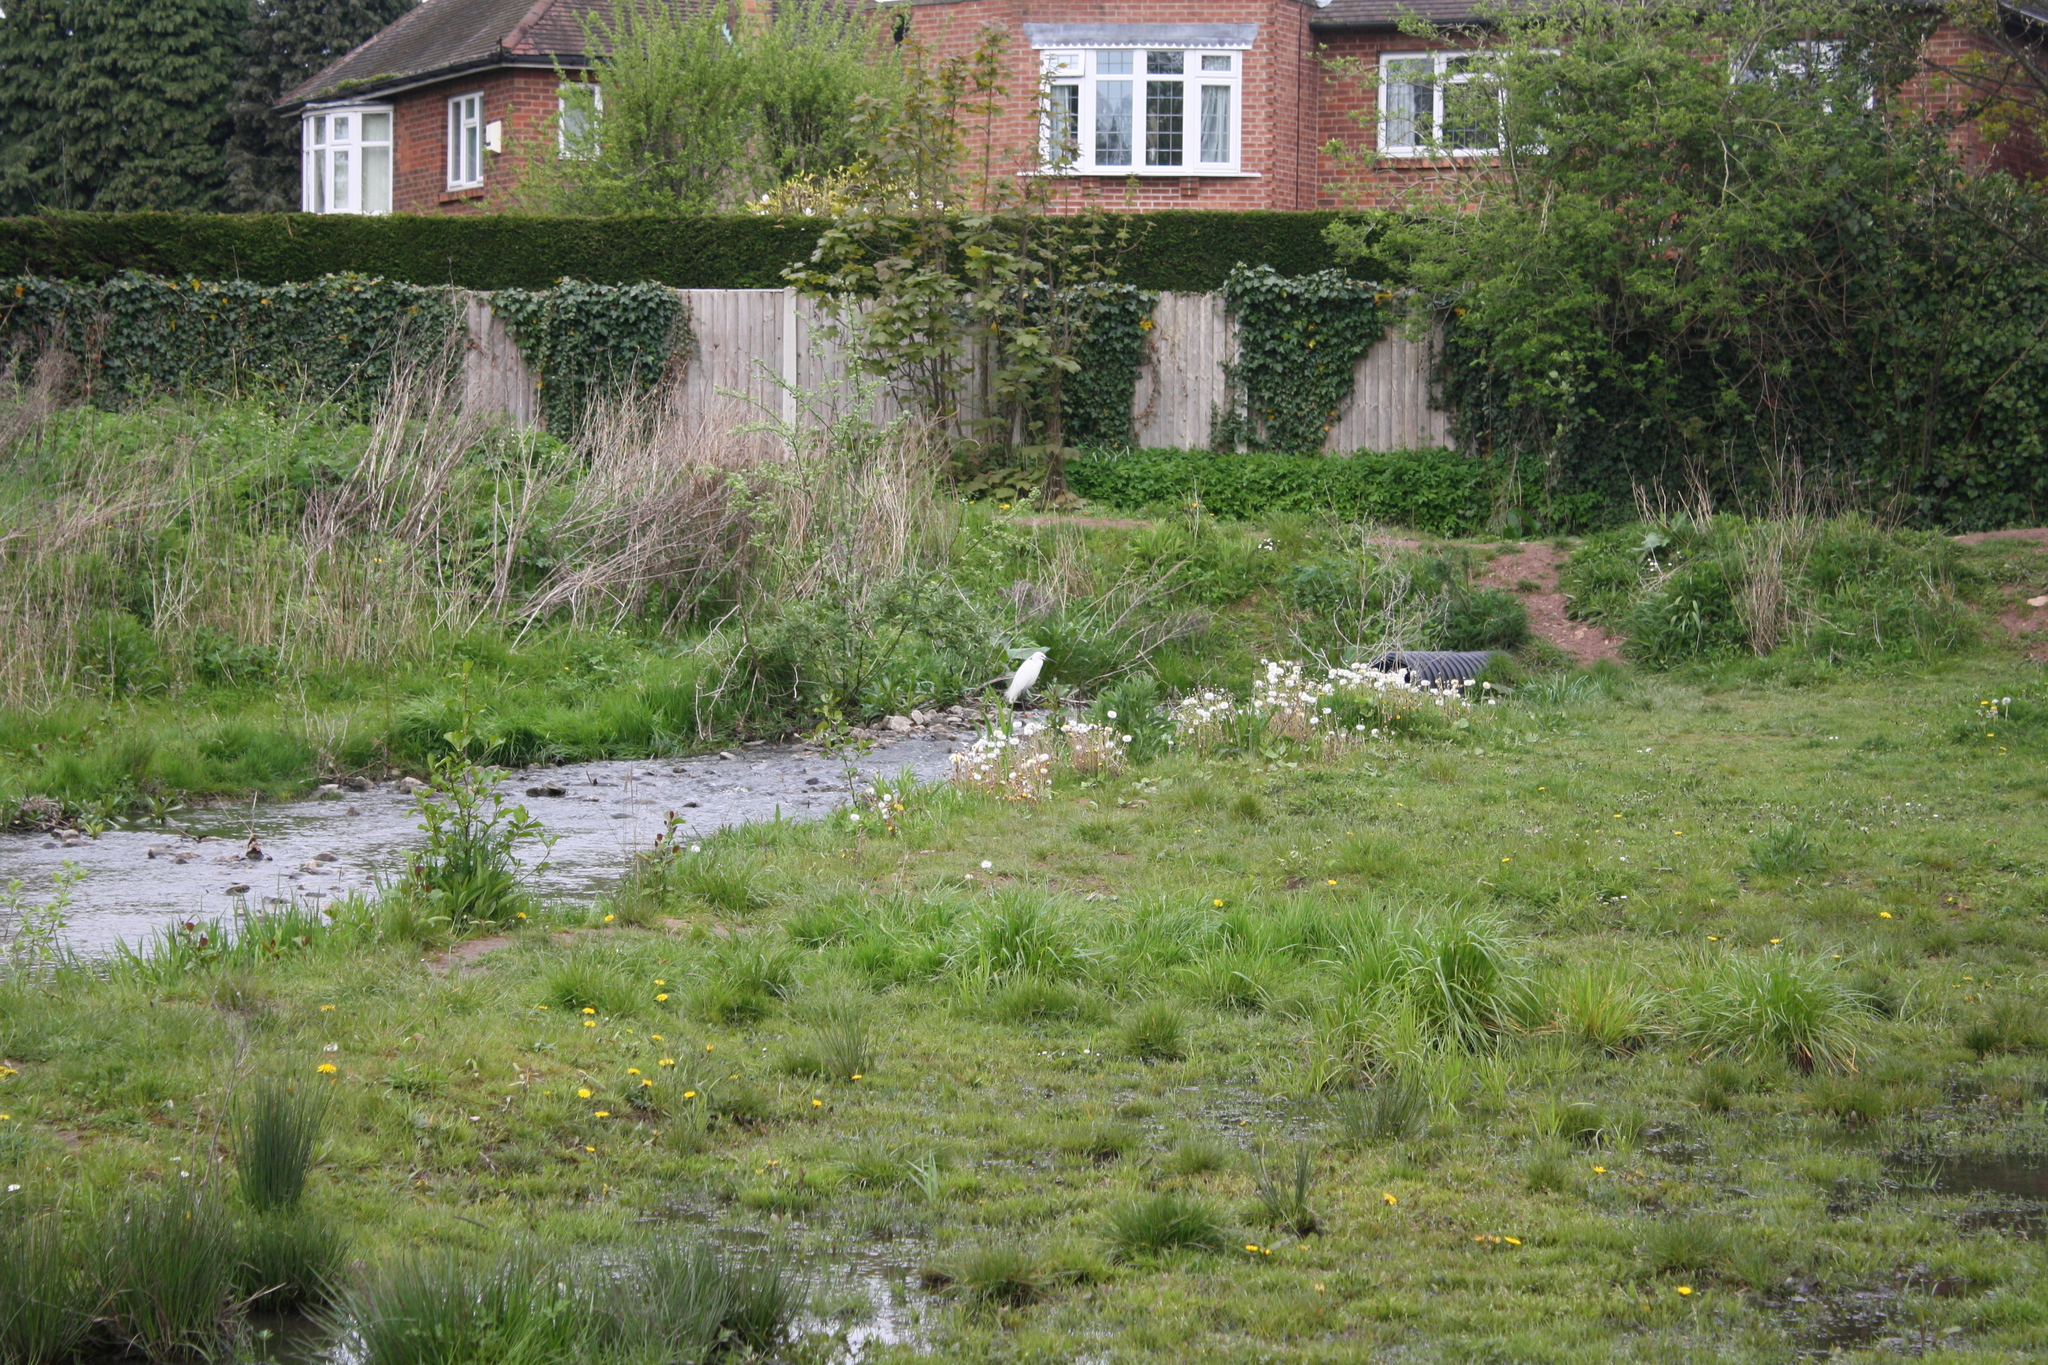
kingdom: Animalia
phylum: Chordata
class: Aves
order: Pelecaniformes
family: Ardeidae
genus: Egretta
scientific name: Egretta garzetta
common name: Little egret
